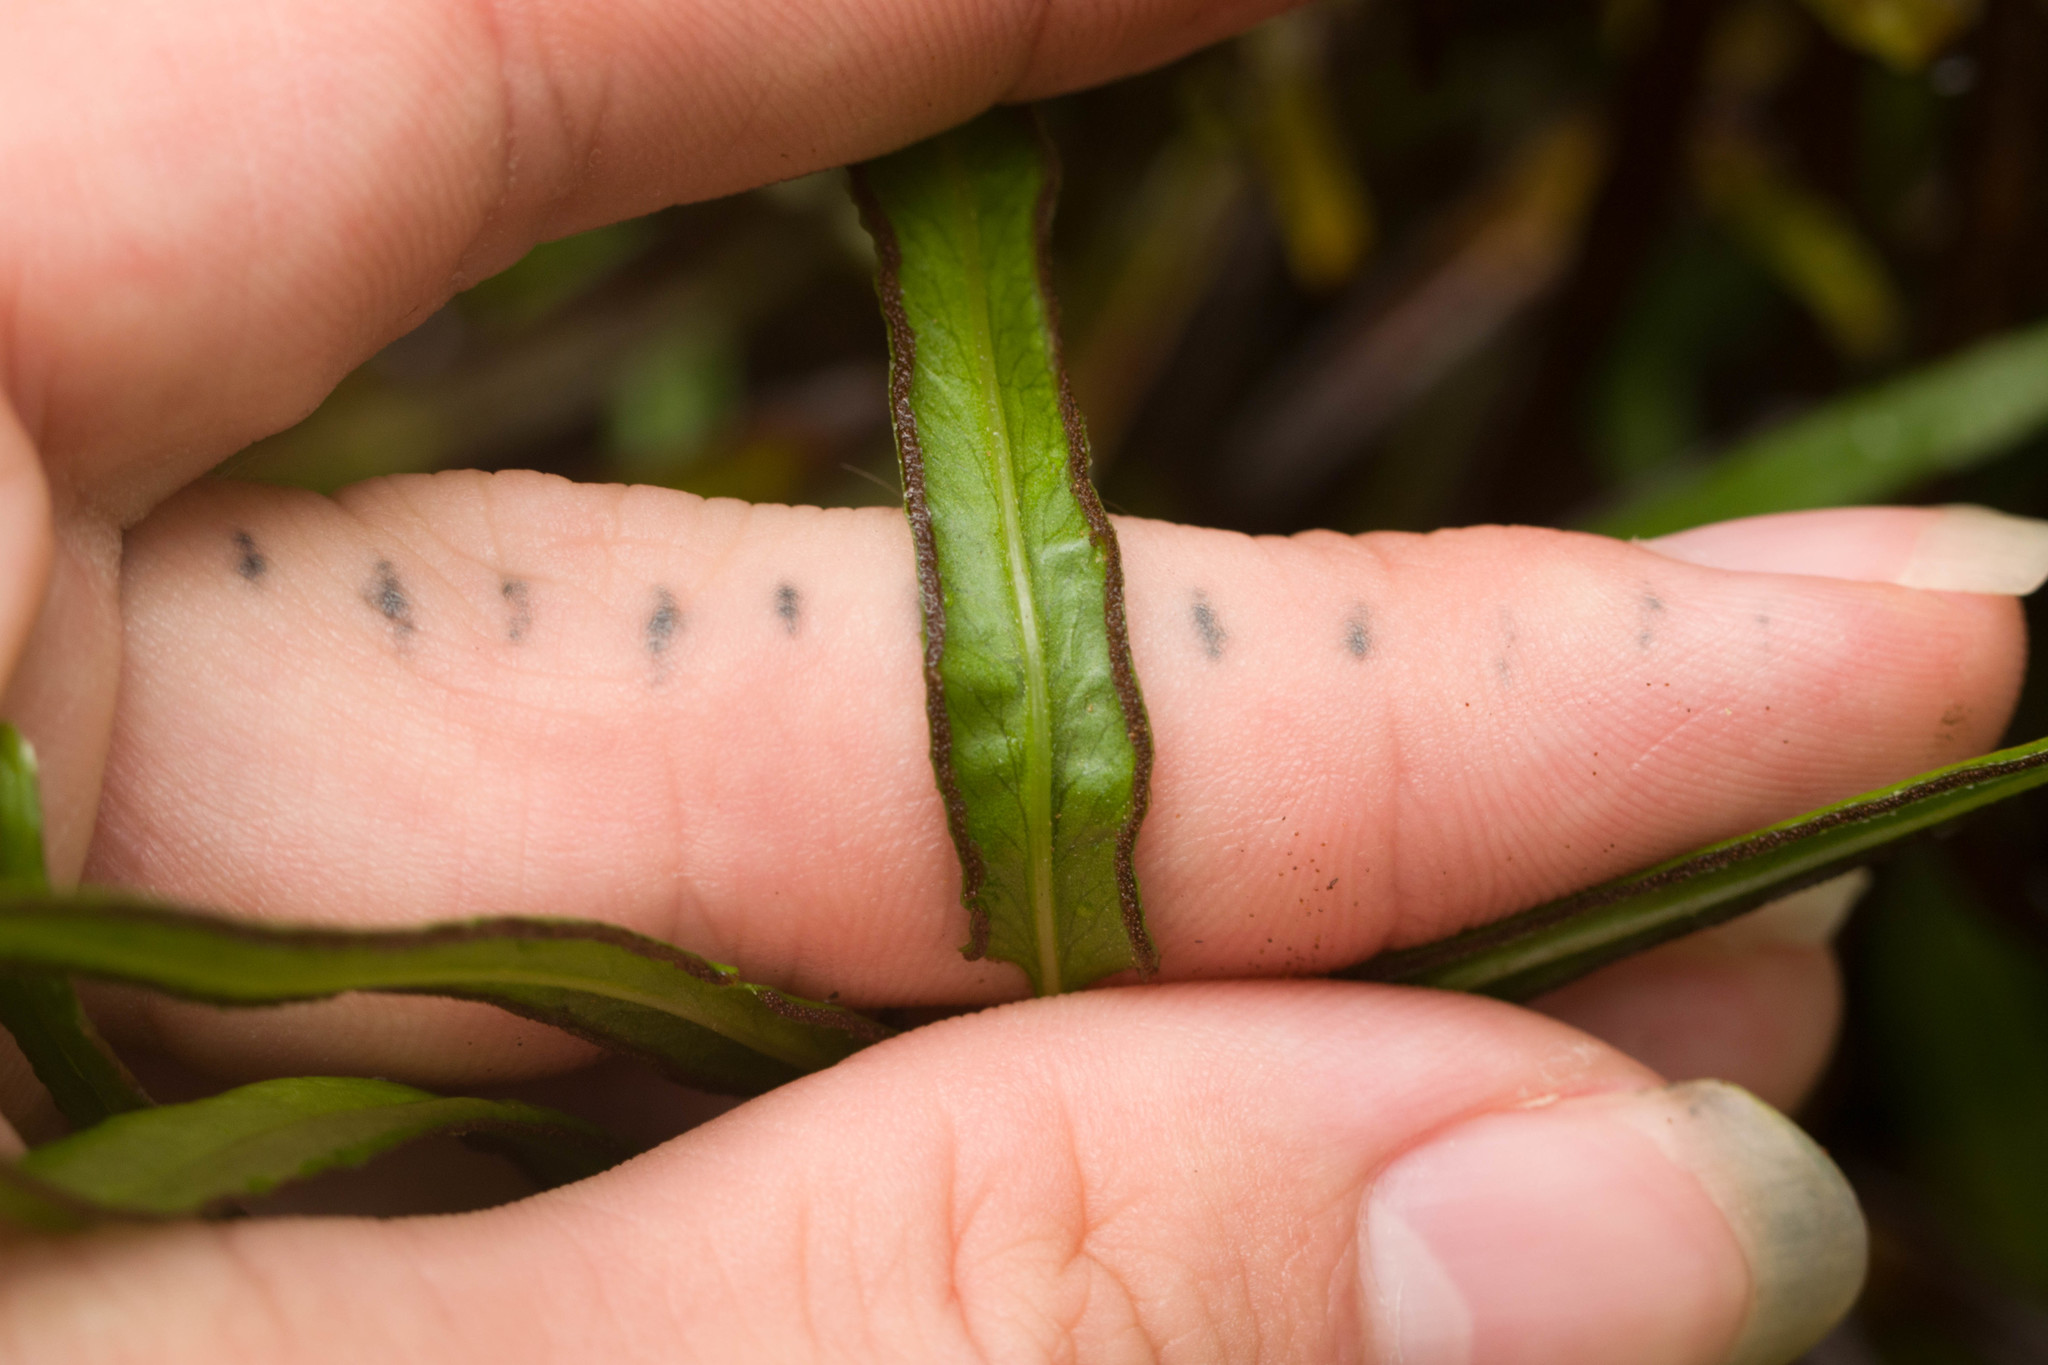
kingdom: Plantae
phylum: Tracheophyta
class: Polypodiopsida
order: Polypodiales
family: Lindsaeaceae
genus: Lindsaea
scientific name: Lindsaea ensifolia
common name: Graceful necklace fern
